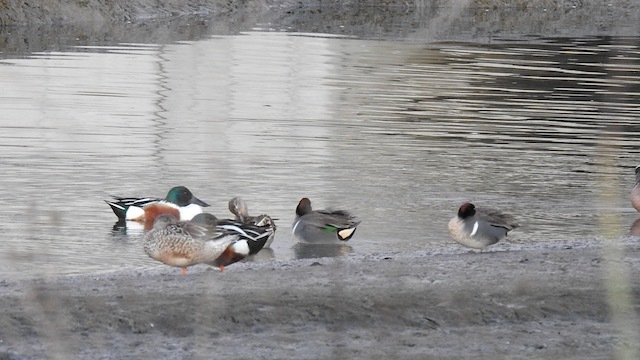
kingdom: Animalia
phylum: Chordata
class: Aves
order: Anseriformes
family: Anatidae
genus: Anas
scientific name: Anas carolinensis
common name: Green-winged teal
